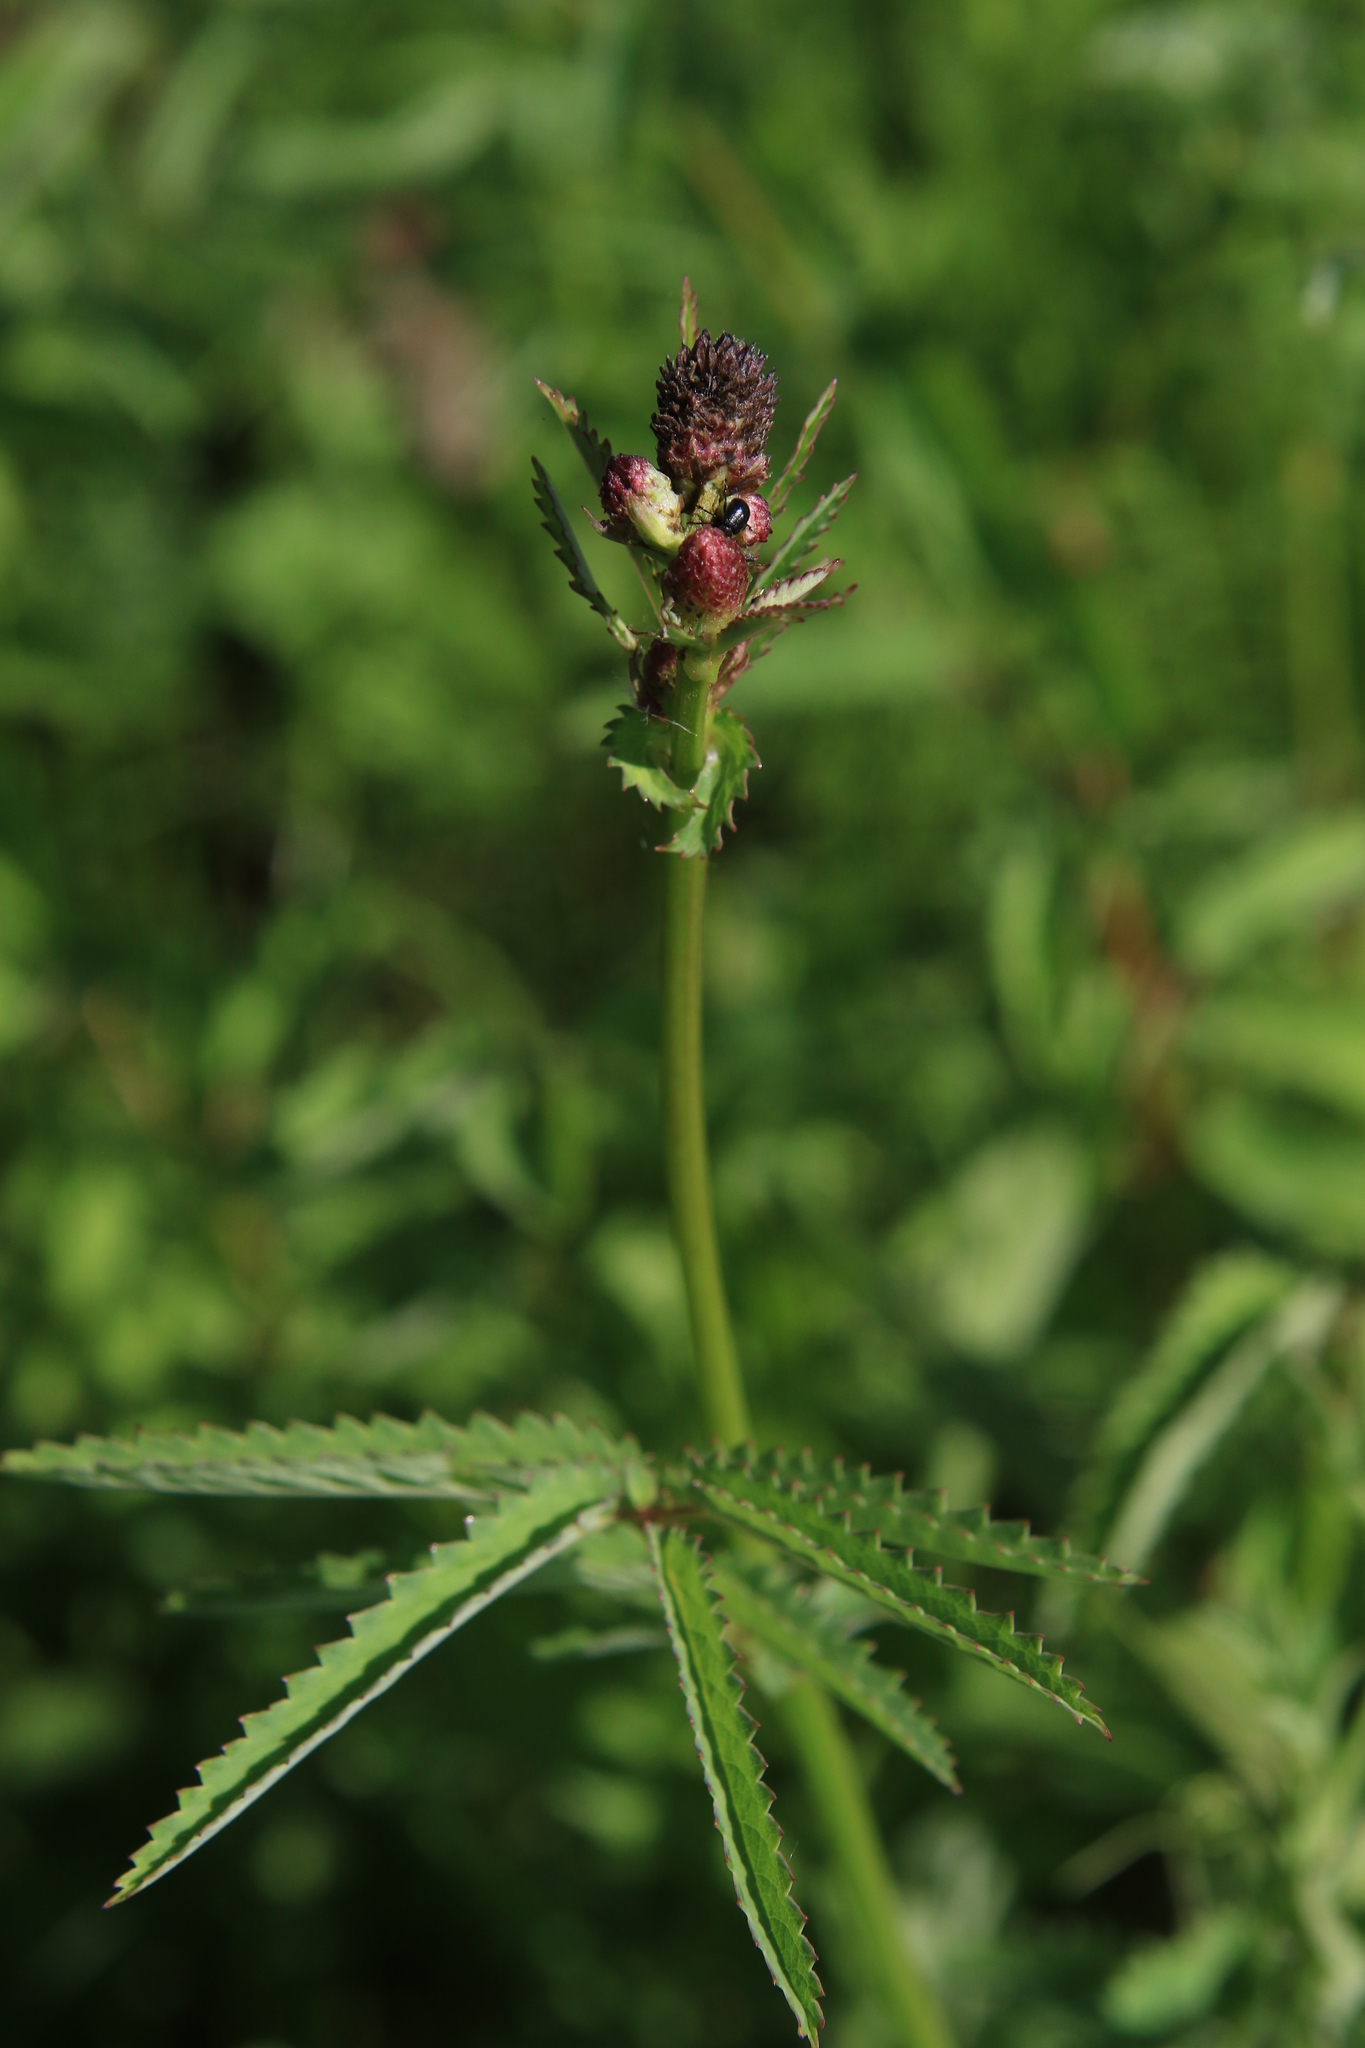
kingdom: Plantae
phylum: Tracheophyta
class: Magnoliopsida
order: Rosales
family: Rosaceae
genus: Sanguisorba
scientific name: Sanguisorba officinalis
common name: Great burnet
